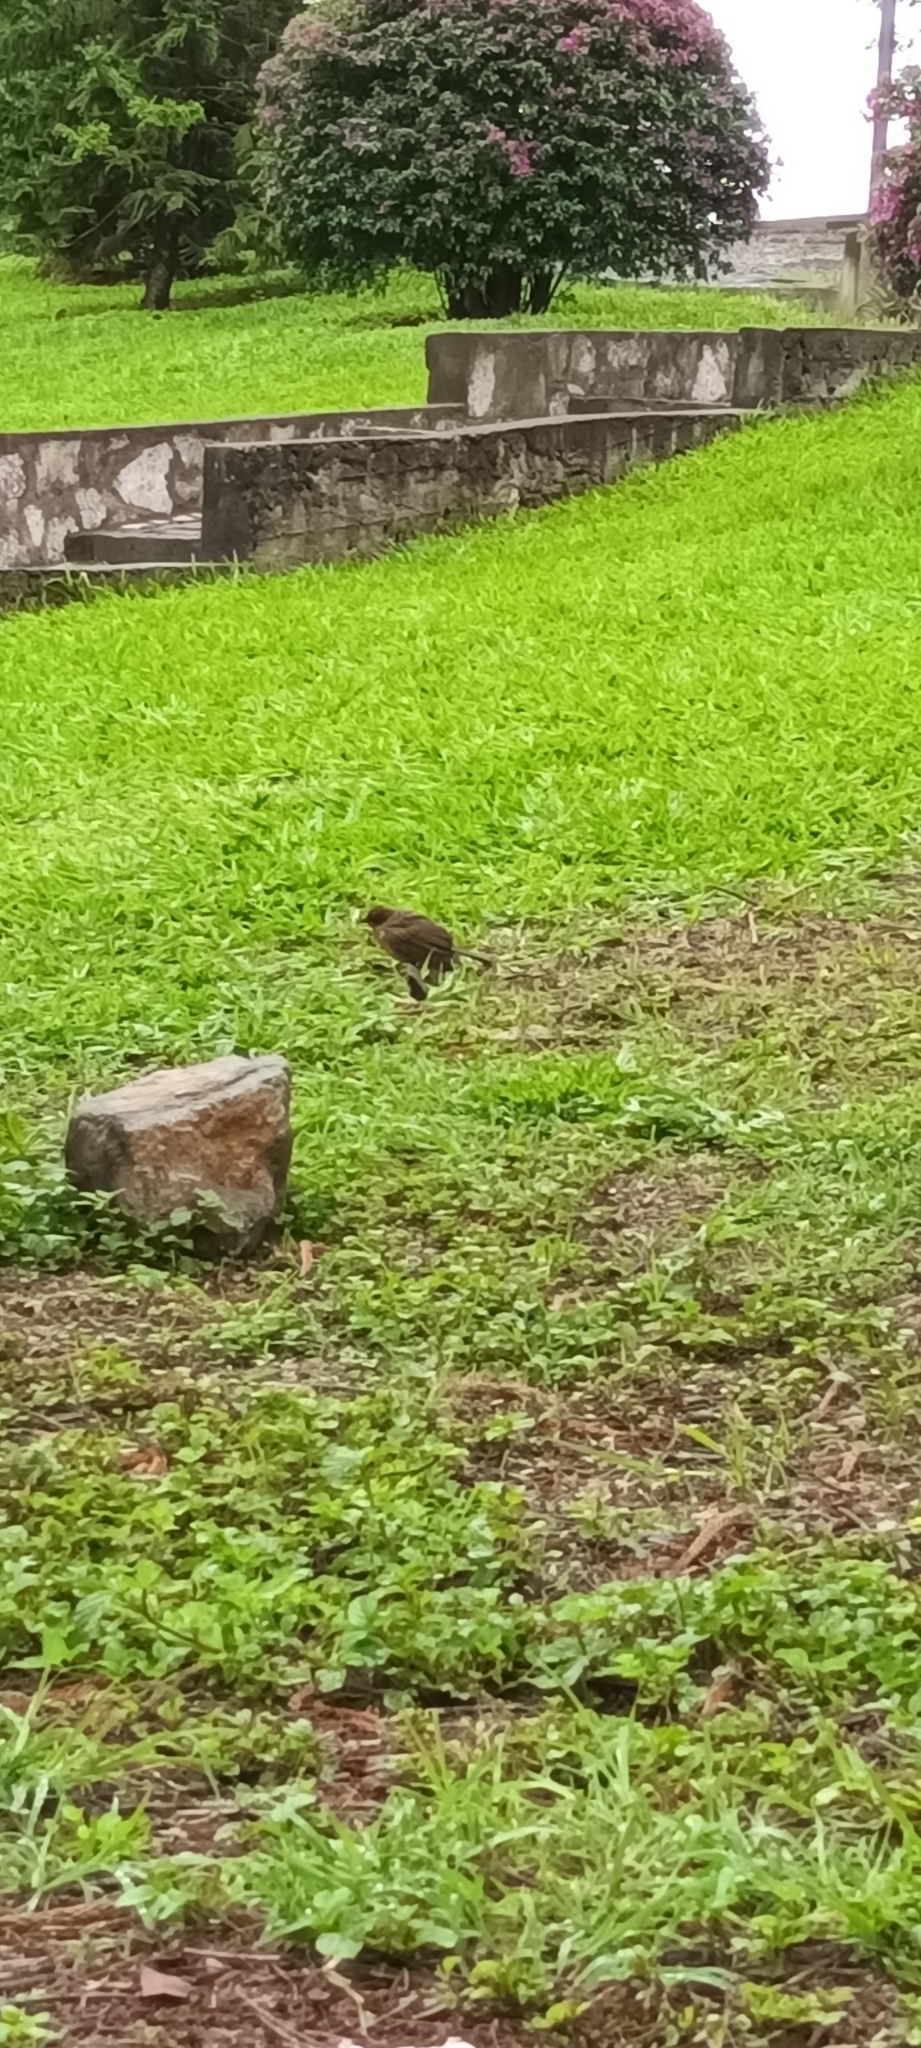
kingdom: Animalia
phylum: Chordata
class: Aves
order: Passeriformes
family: Turdidae
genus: Turdus
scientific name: Turdus grayi
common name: Clay-colored thrush
